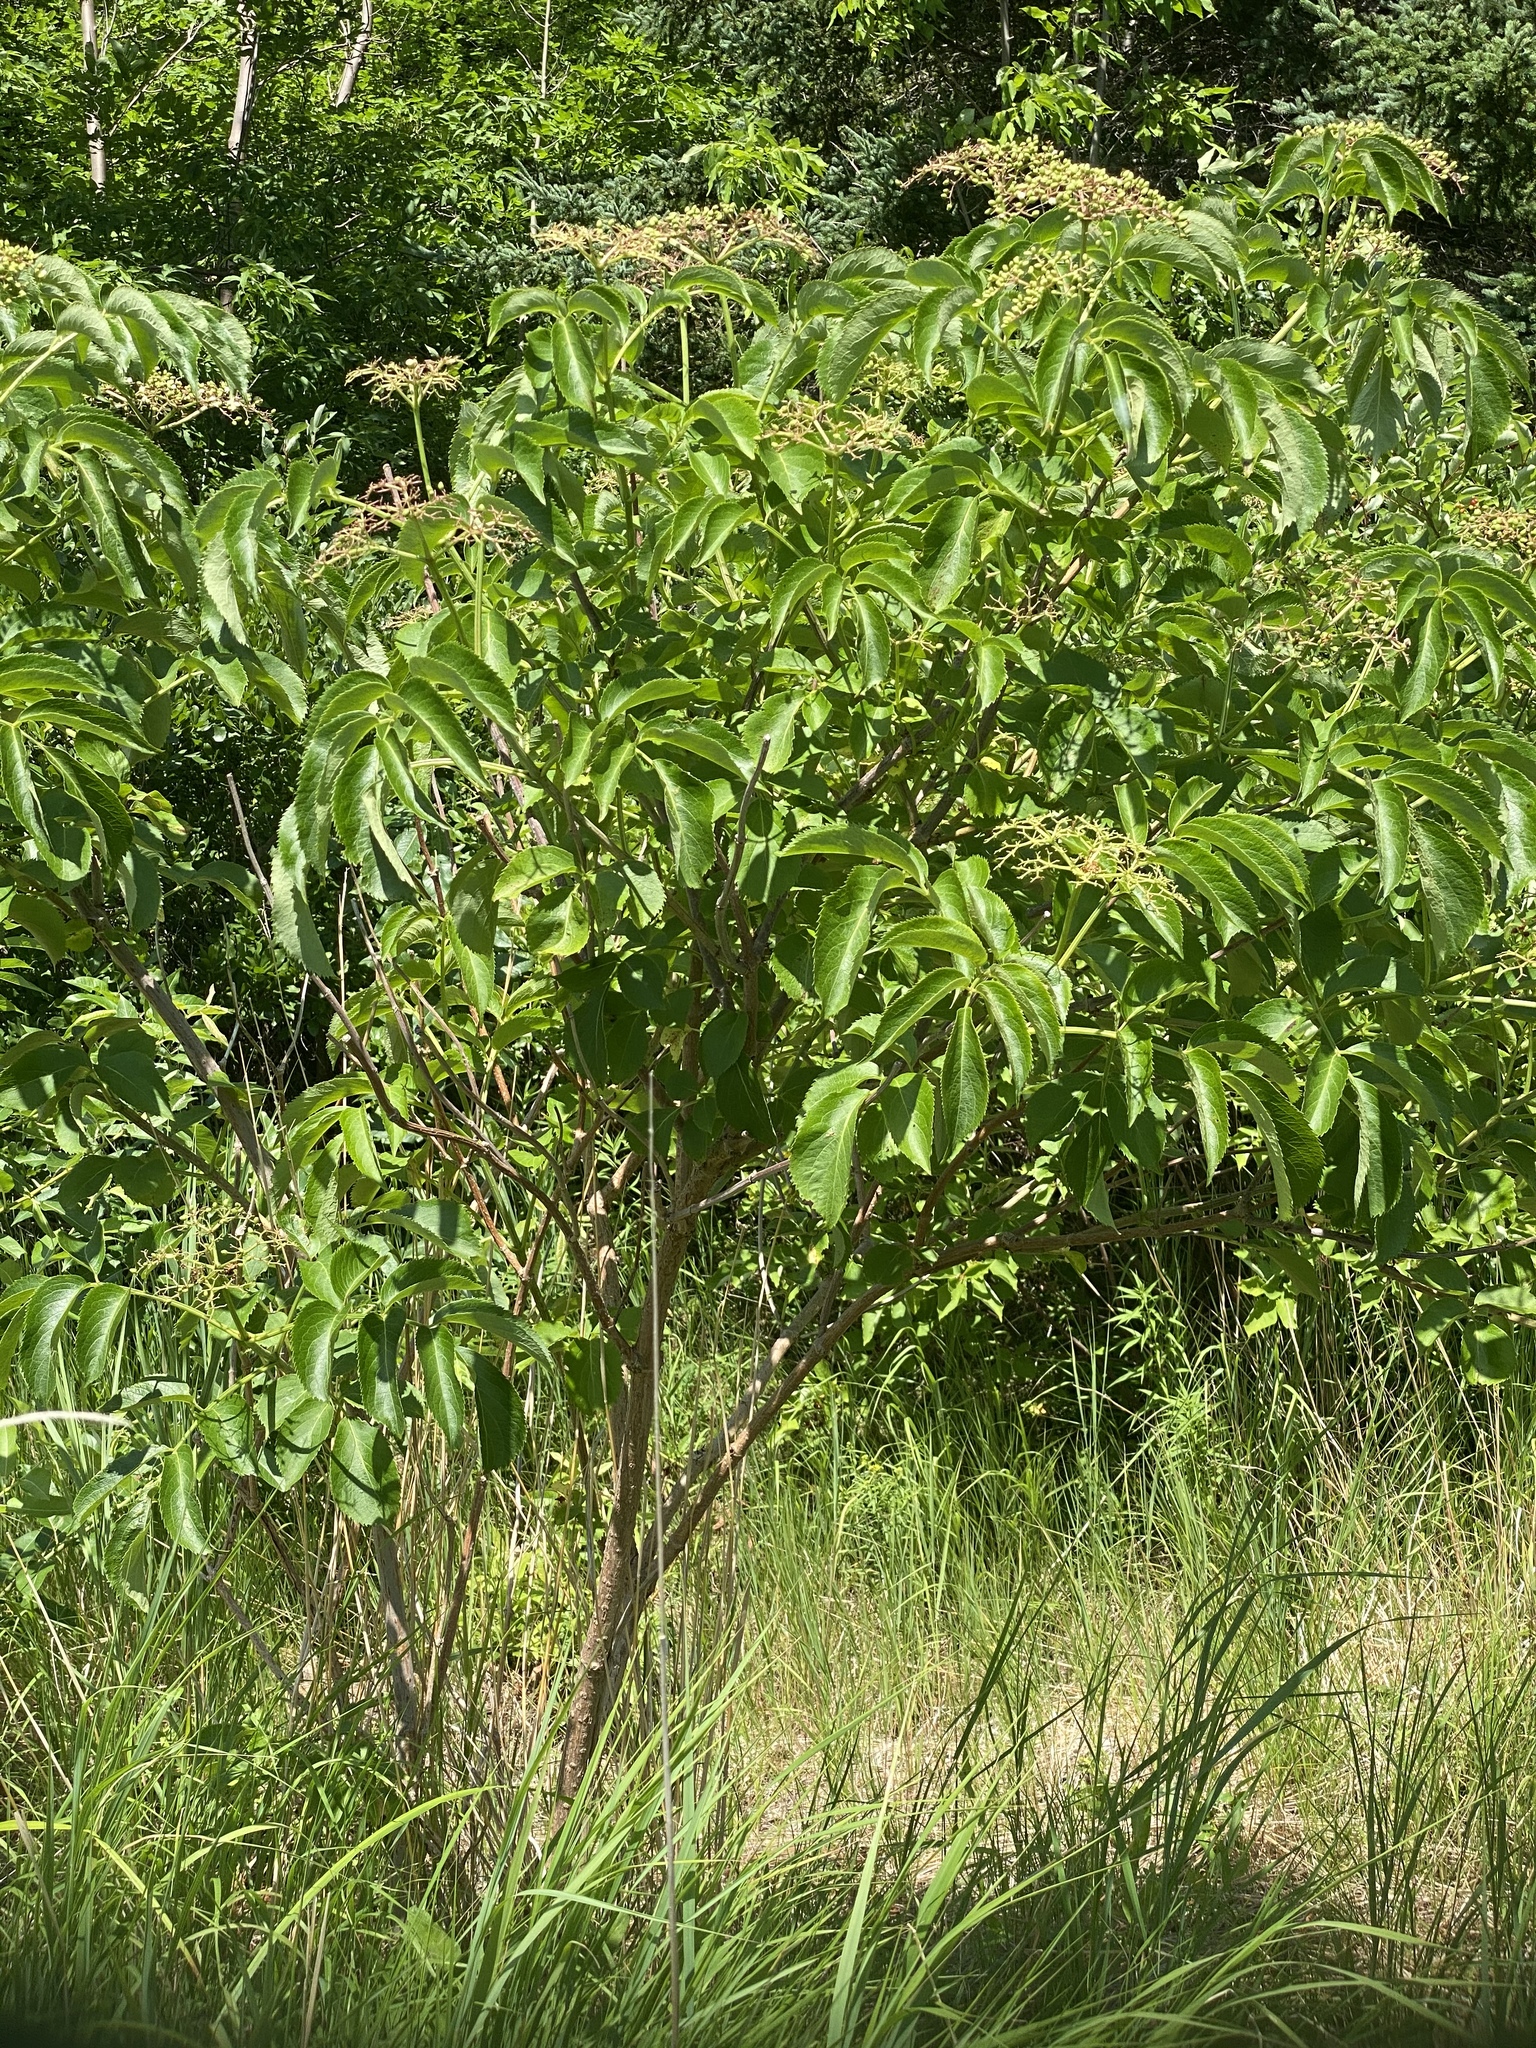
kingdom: Plantae
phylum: Tracheophyta
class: Magnoliopsida
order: Dipsacales
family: Viburnaceae
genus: Sambucus
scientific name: Sambucus canadensis
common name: American elder
